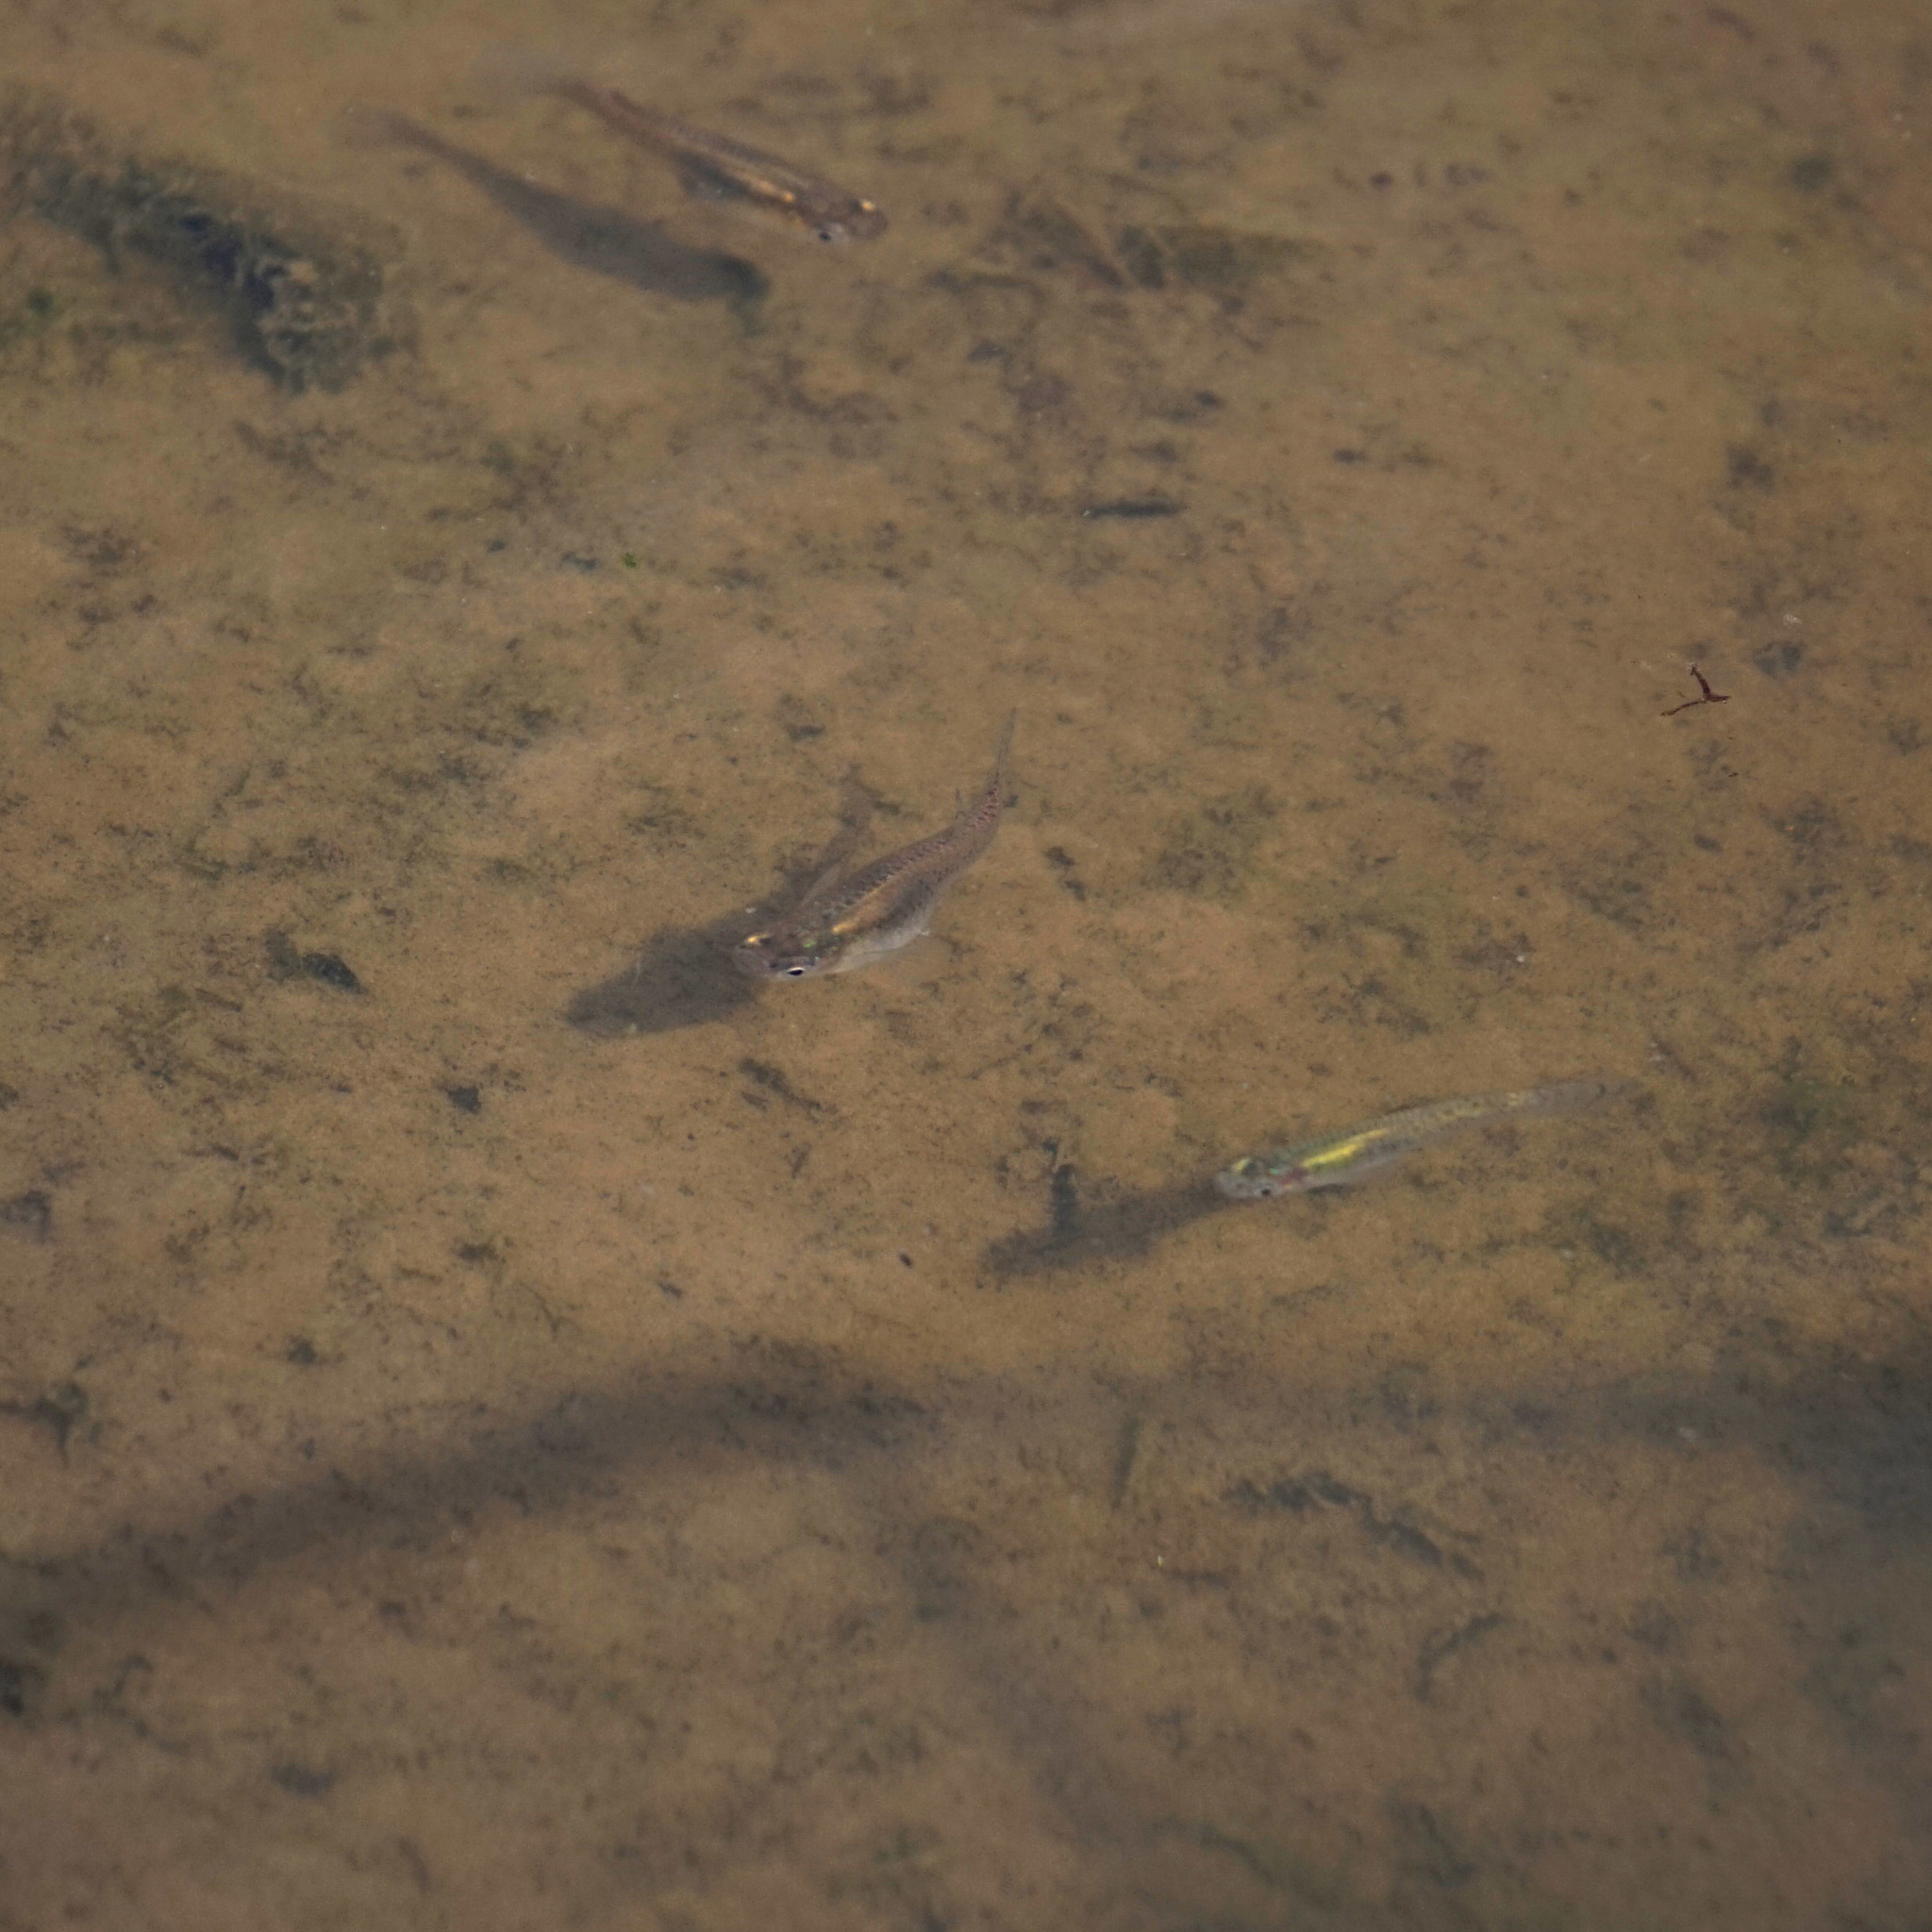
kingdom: Animalia
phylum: Chordata
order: Cyprinodontiformes
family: Poeciliidae
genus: Gambusia
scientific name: Gambusia holbrooki
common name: Eastern mosquitofish
